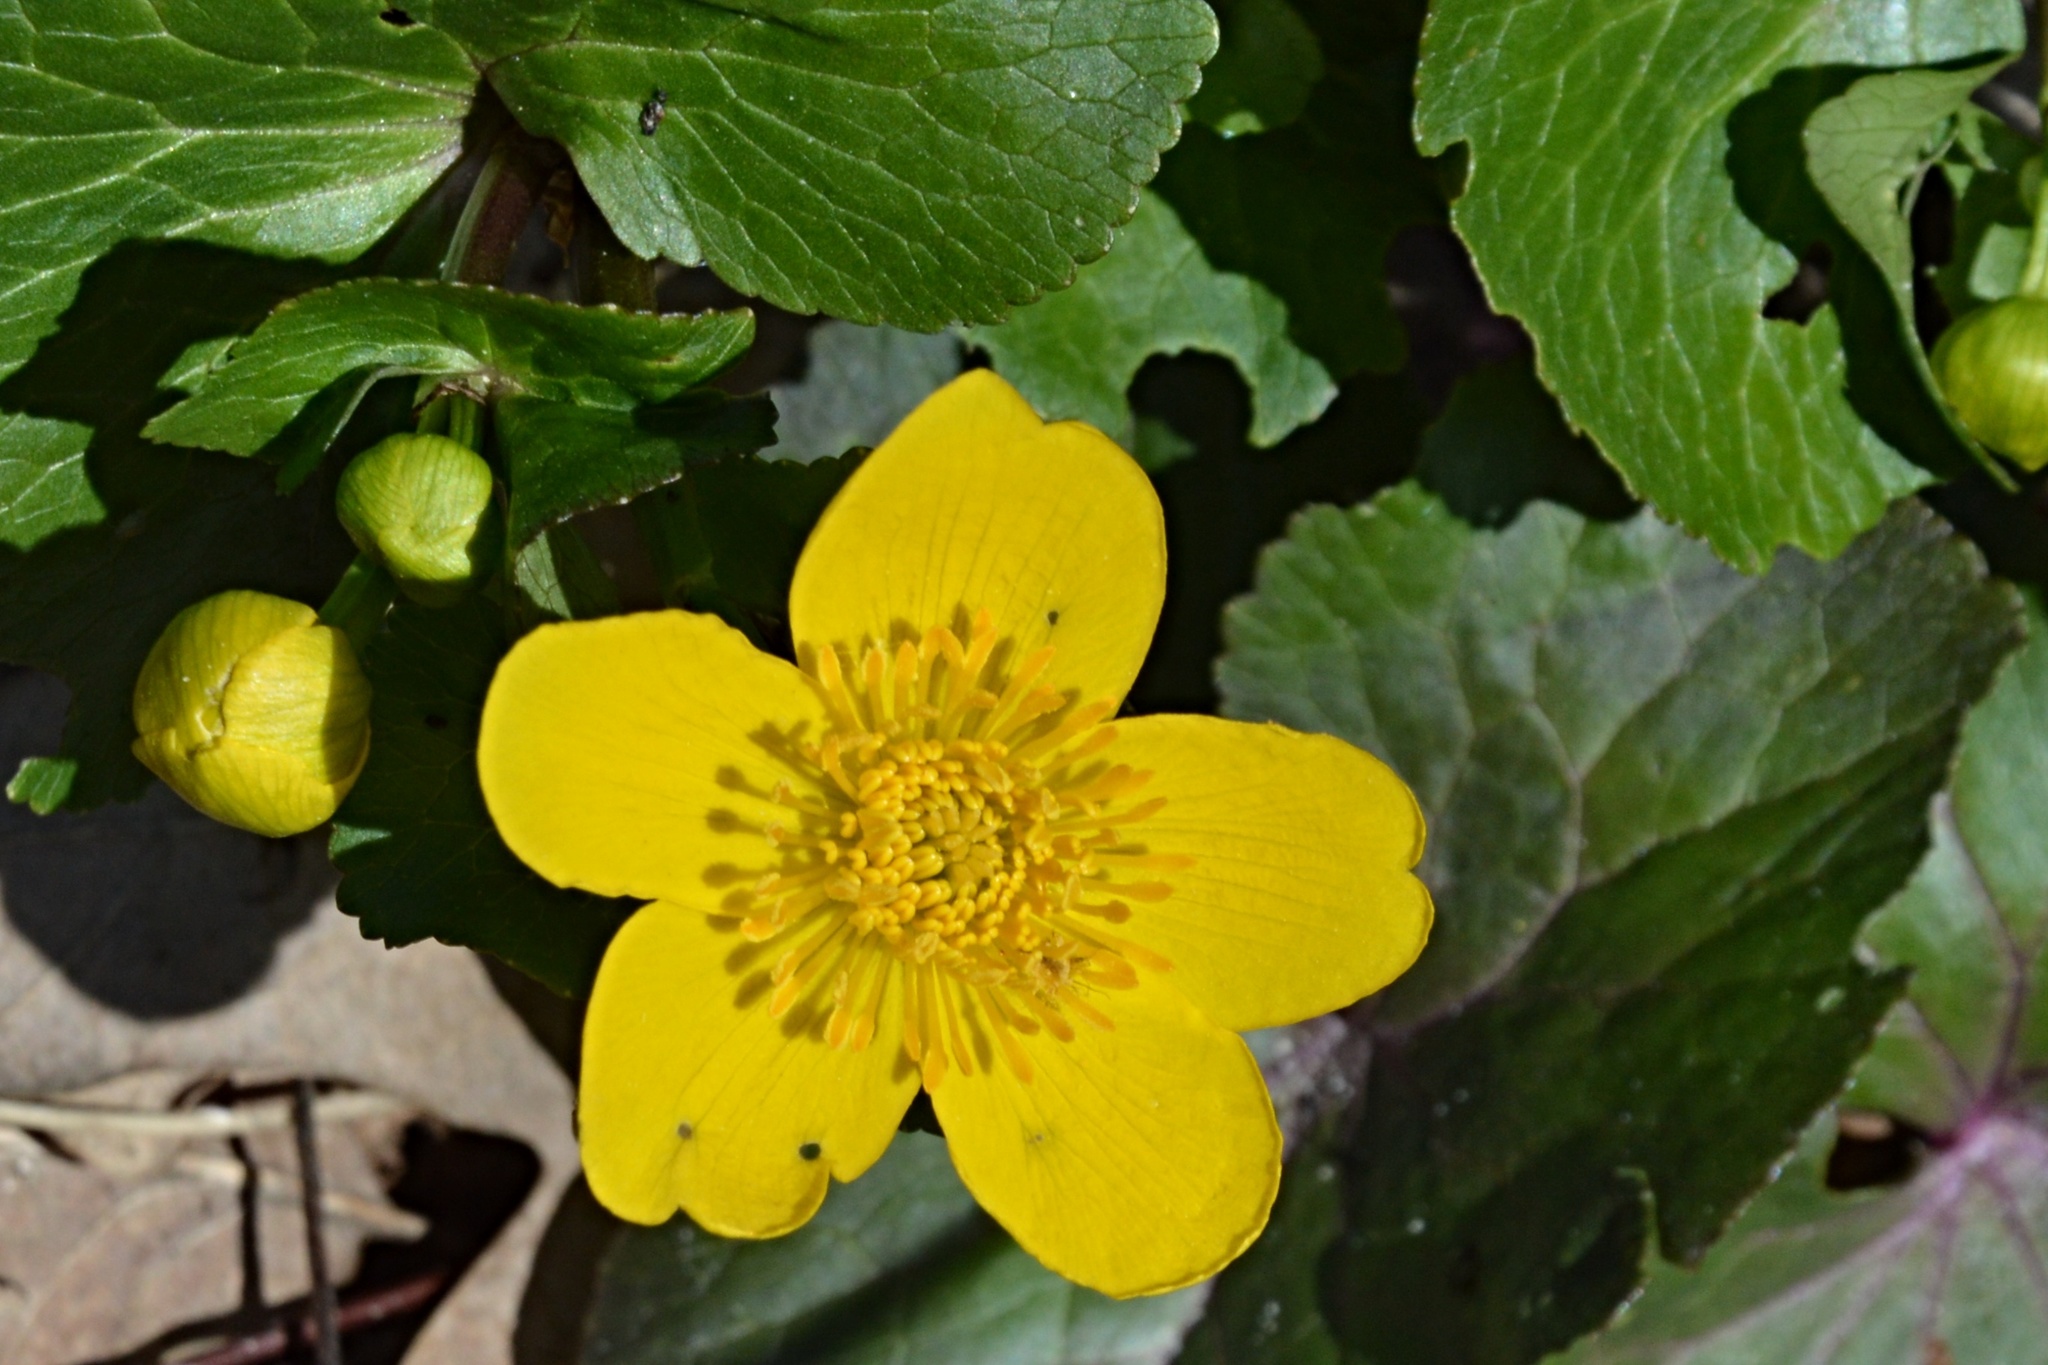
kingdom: Plantae
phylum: Tracheophyta
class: Magnoliopsida
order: Ranunculales
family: Ranunculaceae
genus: Caltha
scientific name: Caltha palustris
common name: Marsh marigold
